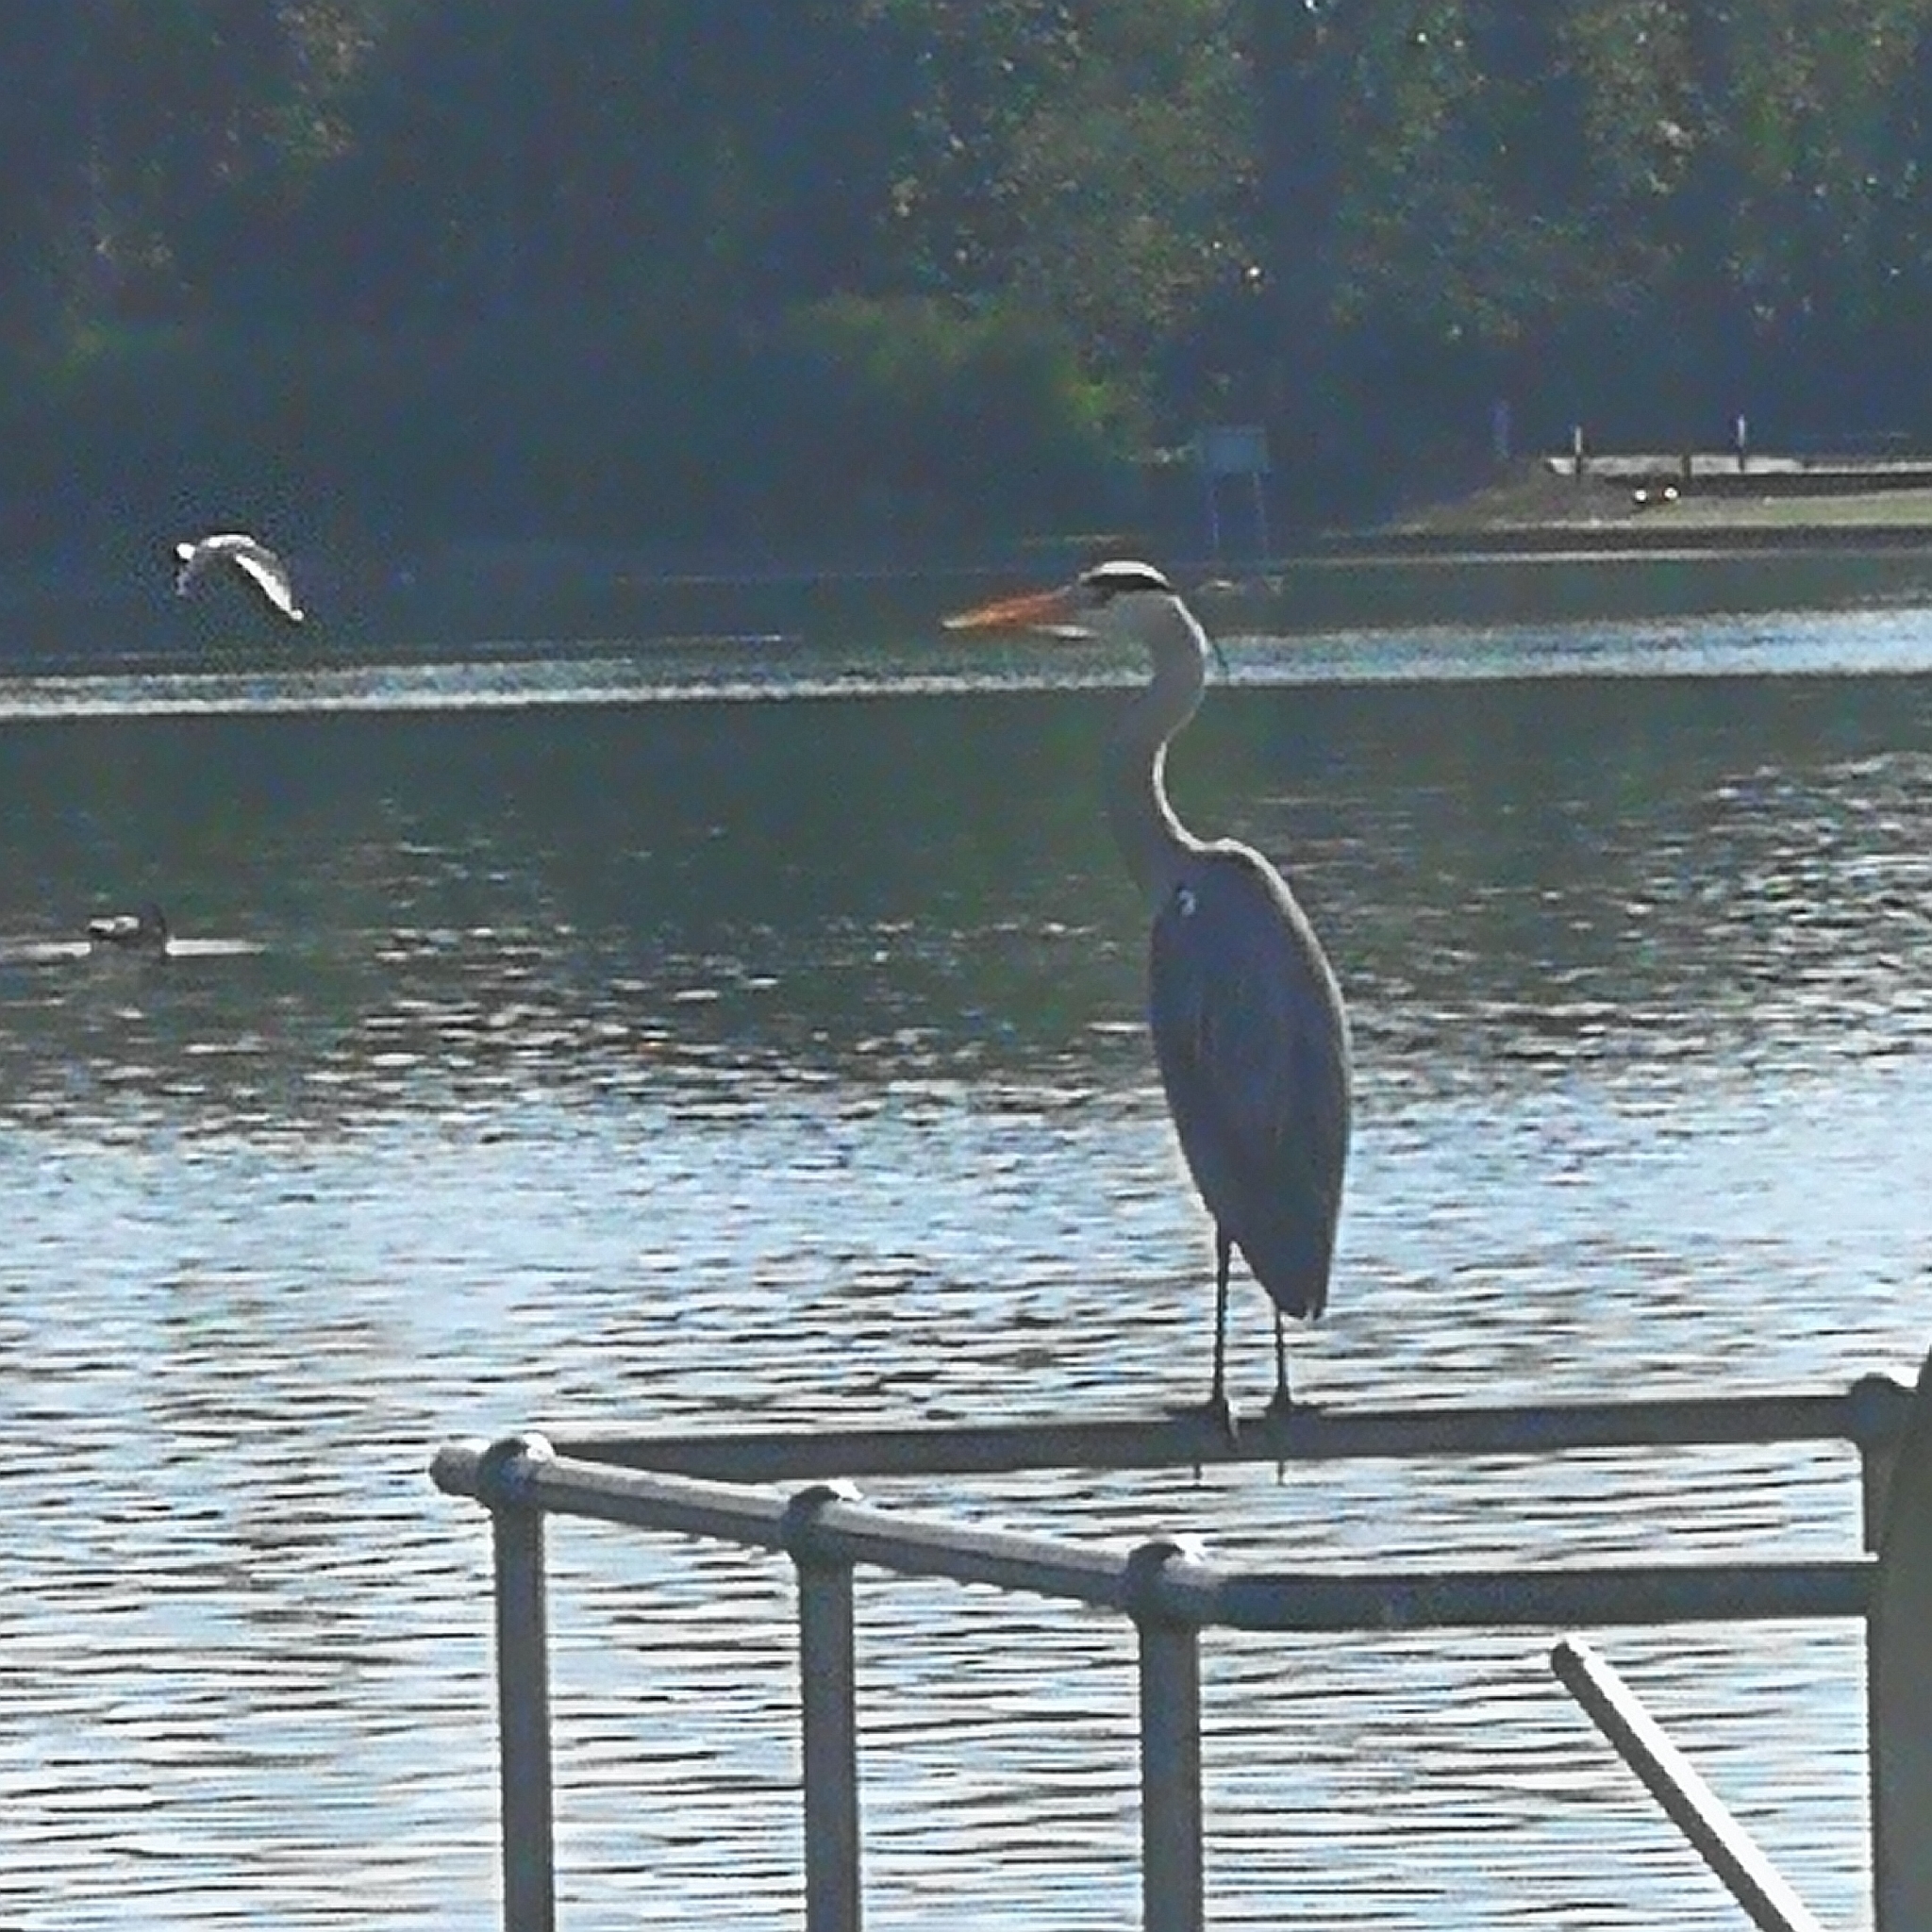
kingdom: Animalia
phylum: Chordata
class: Aves
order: Pelecaniformes
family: Ardeidae
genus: Ardea
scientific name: Ardea cinerea
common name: Grey heron
